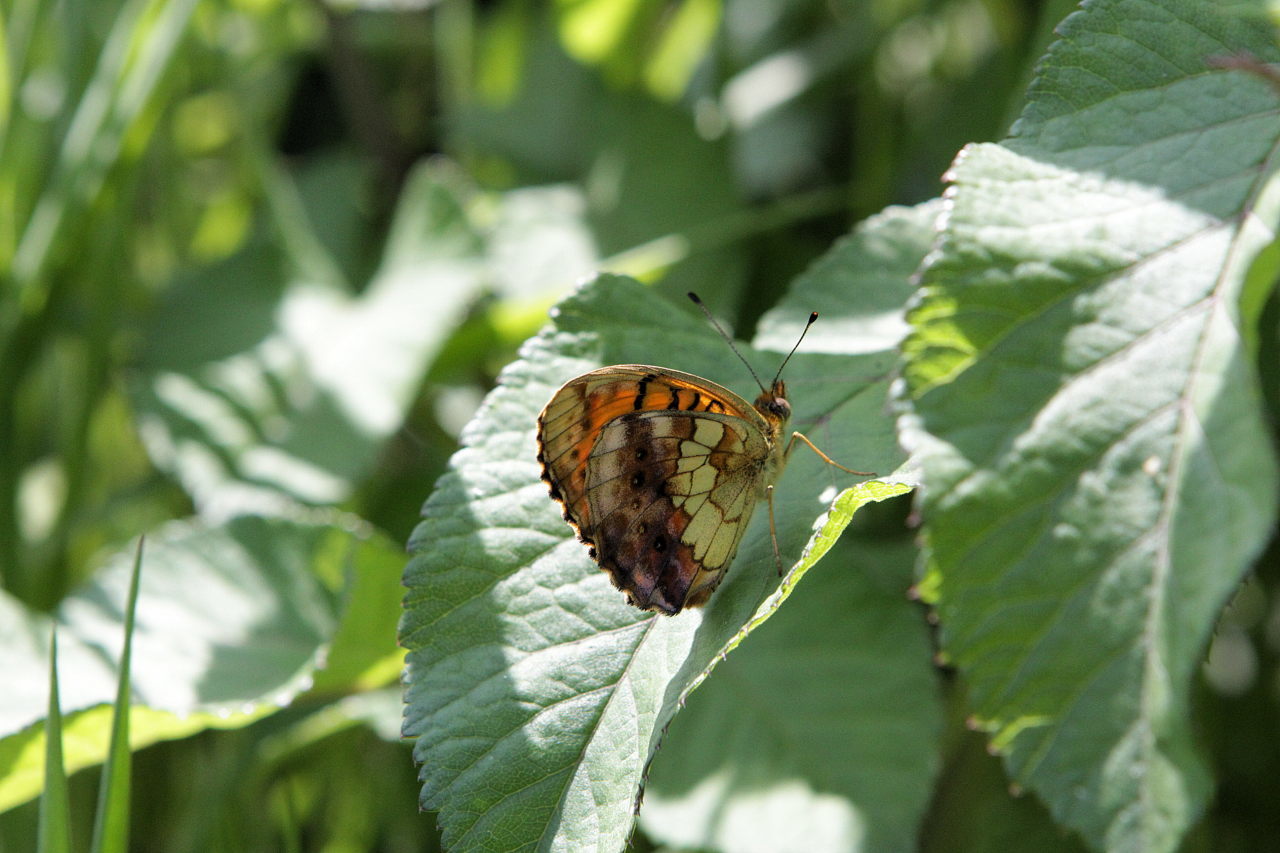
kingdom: Animalia
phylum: Arthropoda
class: Insecta
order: Lepidoptera
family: Nymphalidae
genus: Brenthis
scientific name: Brenthis daphne
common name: Marbled fritillary
